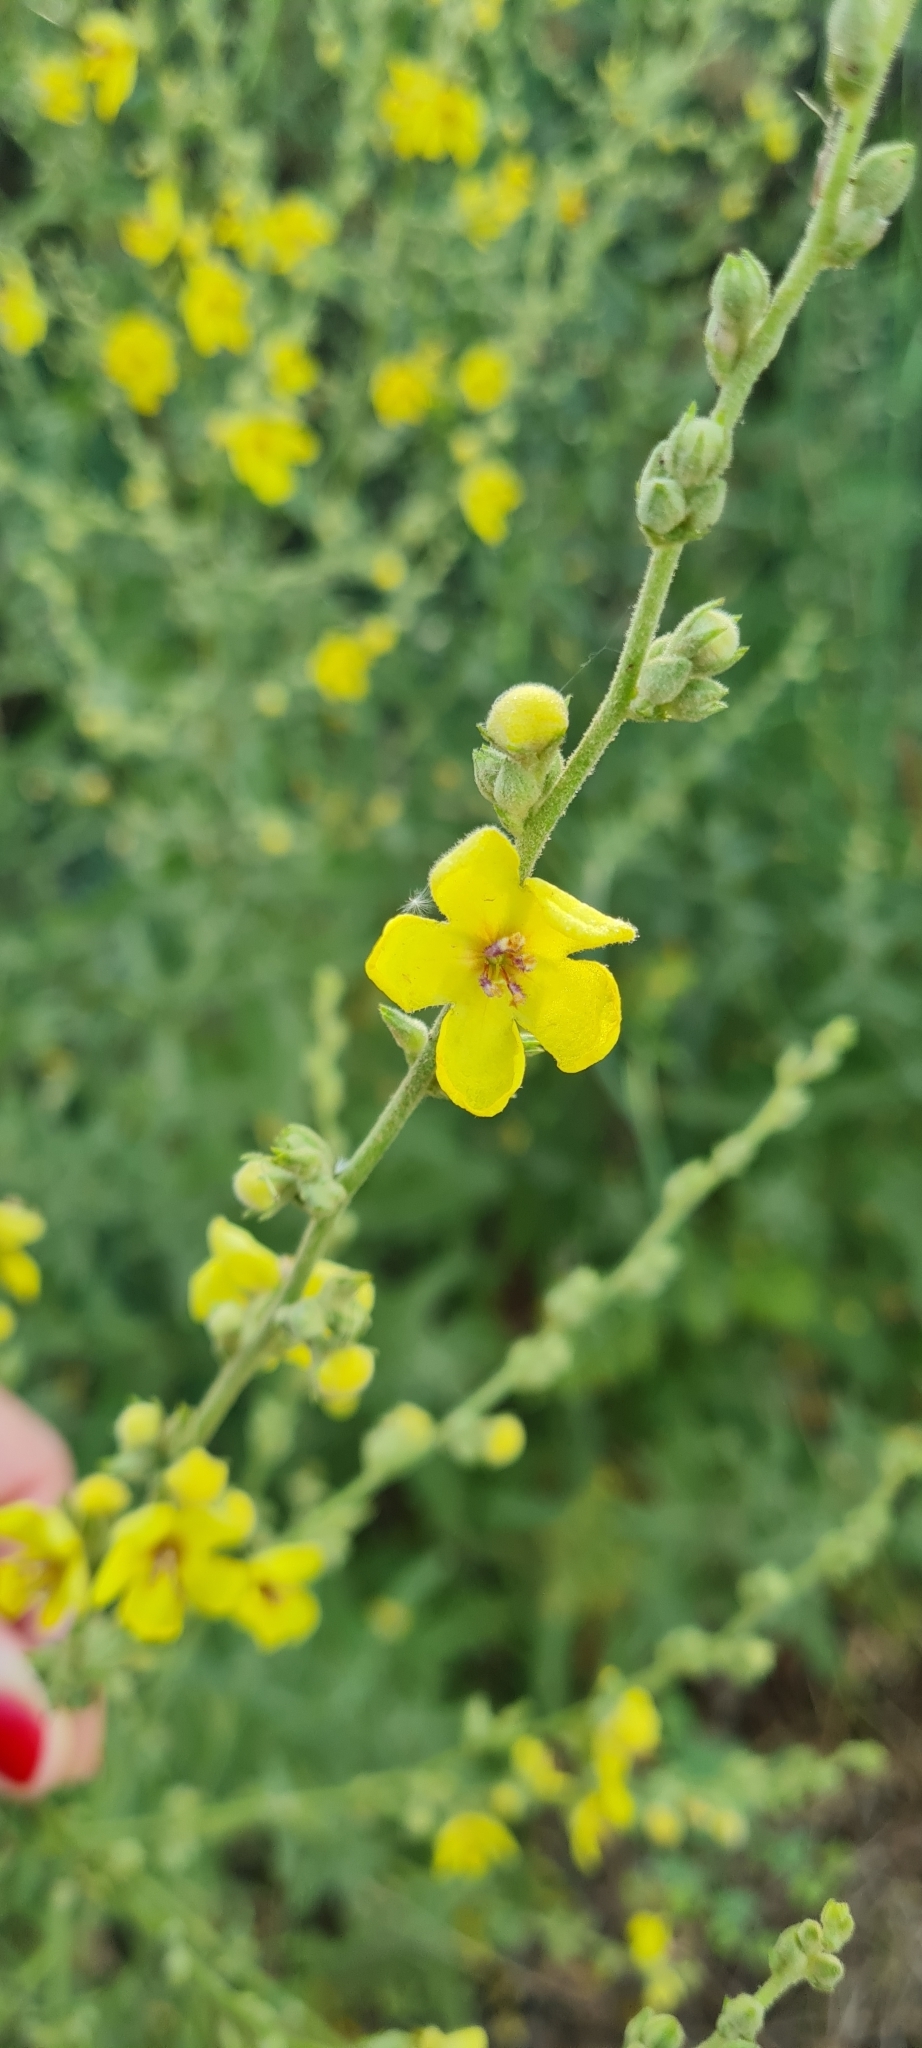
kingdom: Plantae
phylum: Tracheophyta
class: Magnoliopsida
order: Lamiales
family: Scrophulariaceae
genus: Verbascum
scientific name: Verbascum sinuatum
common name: Wavyleaf mullein
